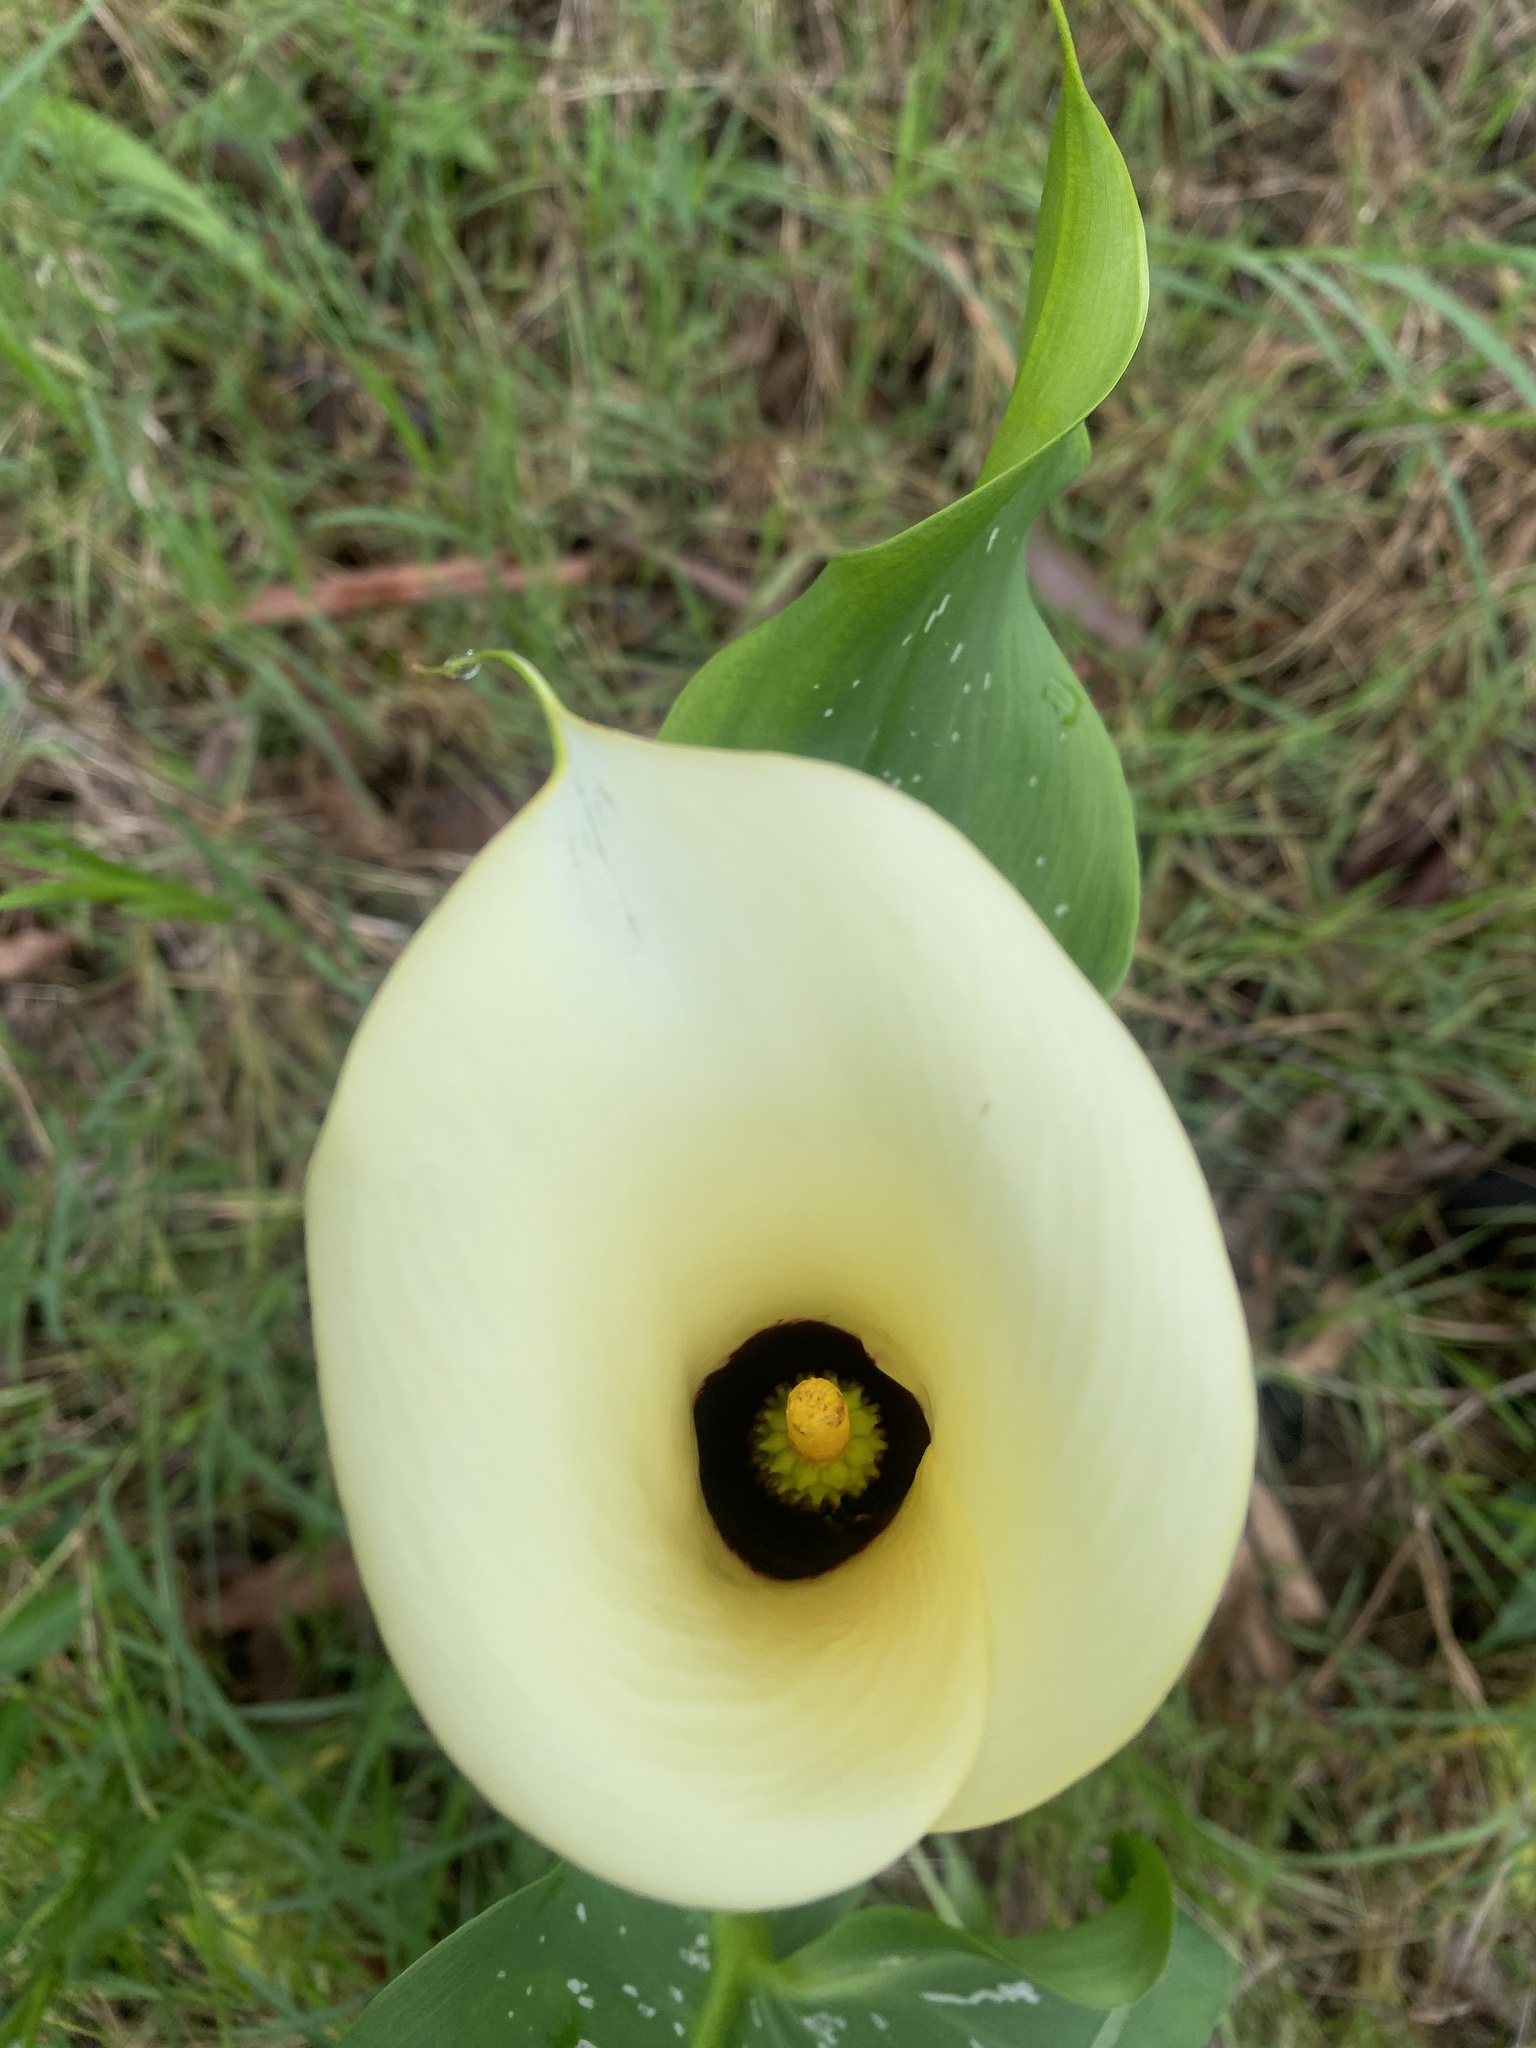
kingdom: Plantae
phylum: Tracheophyta
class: Liliopsida
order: Alismatales
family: Araceae
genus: Zantedeschia
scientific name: Zantedeschia albomaculata
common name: Spotted calla lily
